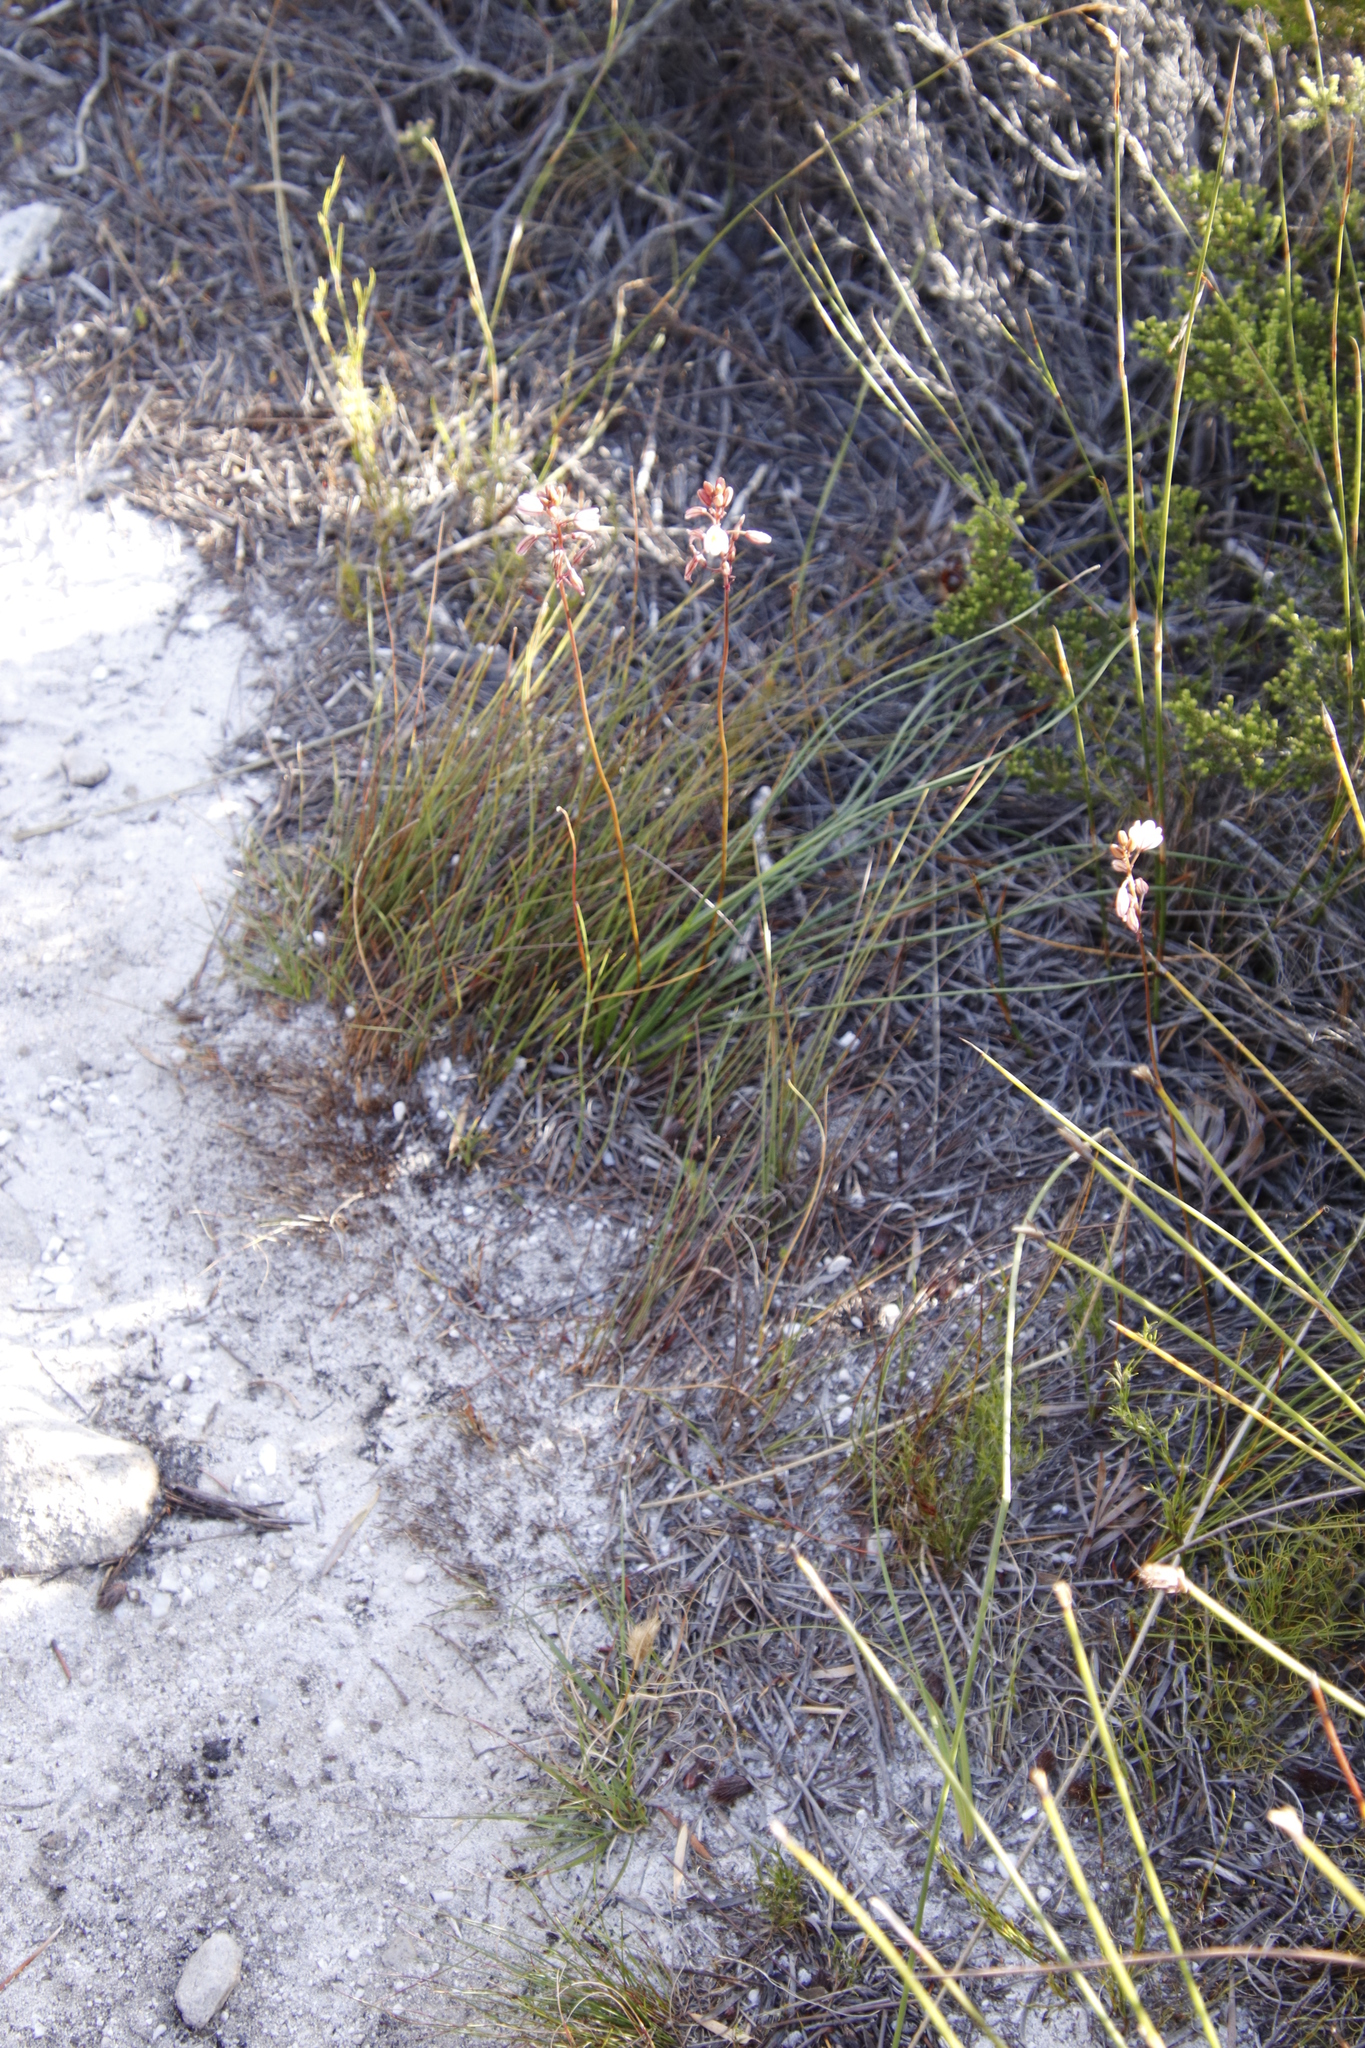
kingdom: Plantae
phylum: Tracheophyta
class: Liliopsida
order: Asparagales
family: Asparagaceae
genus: Drimia
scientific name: Drimia salteri
